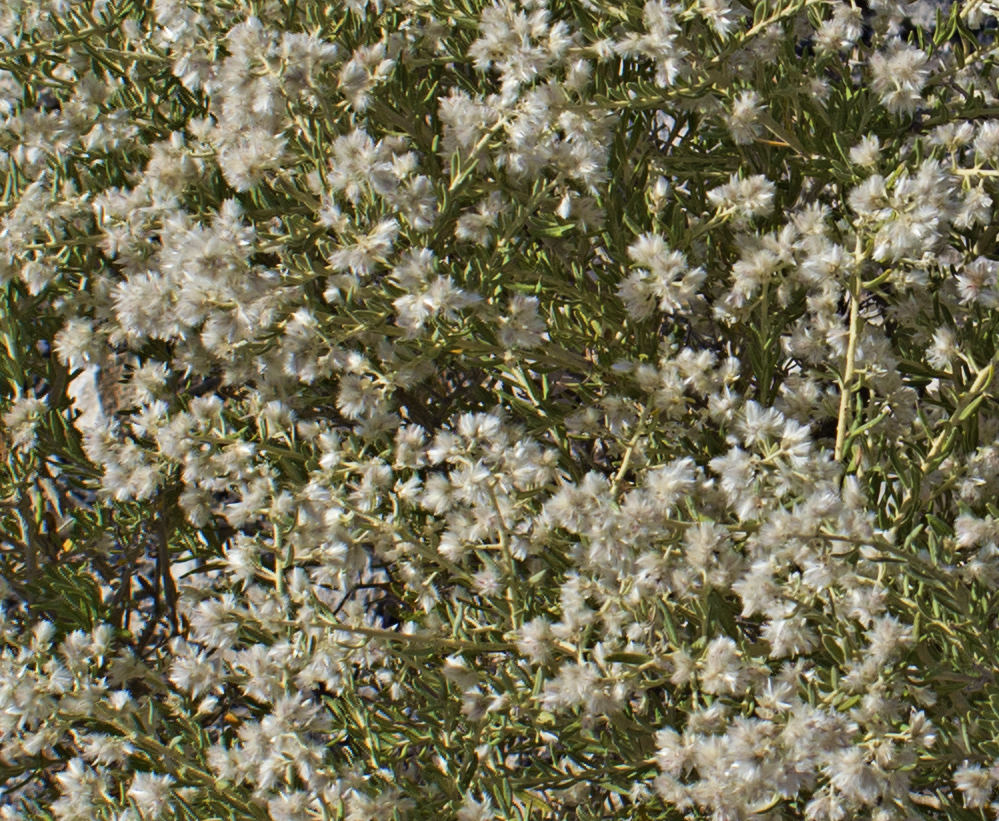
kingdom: Plantae
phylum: Tracheophyta
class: Magnoliopsida
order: Caryophyllales
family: Amaranthaceae
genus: Ptilotus
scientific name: Ptilotus pedleyanus
